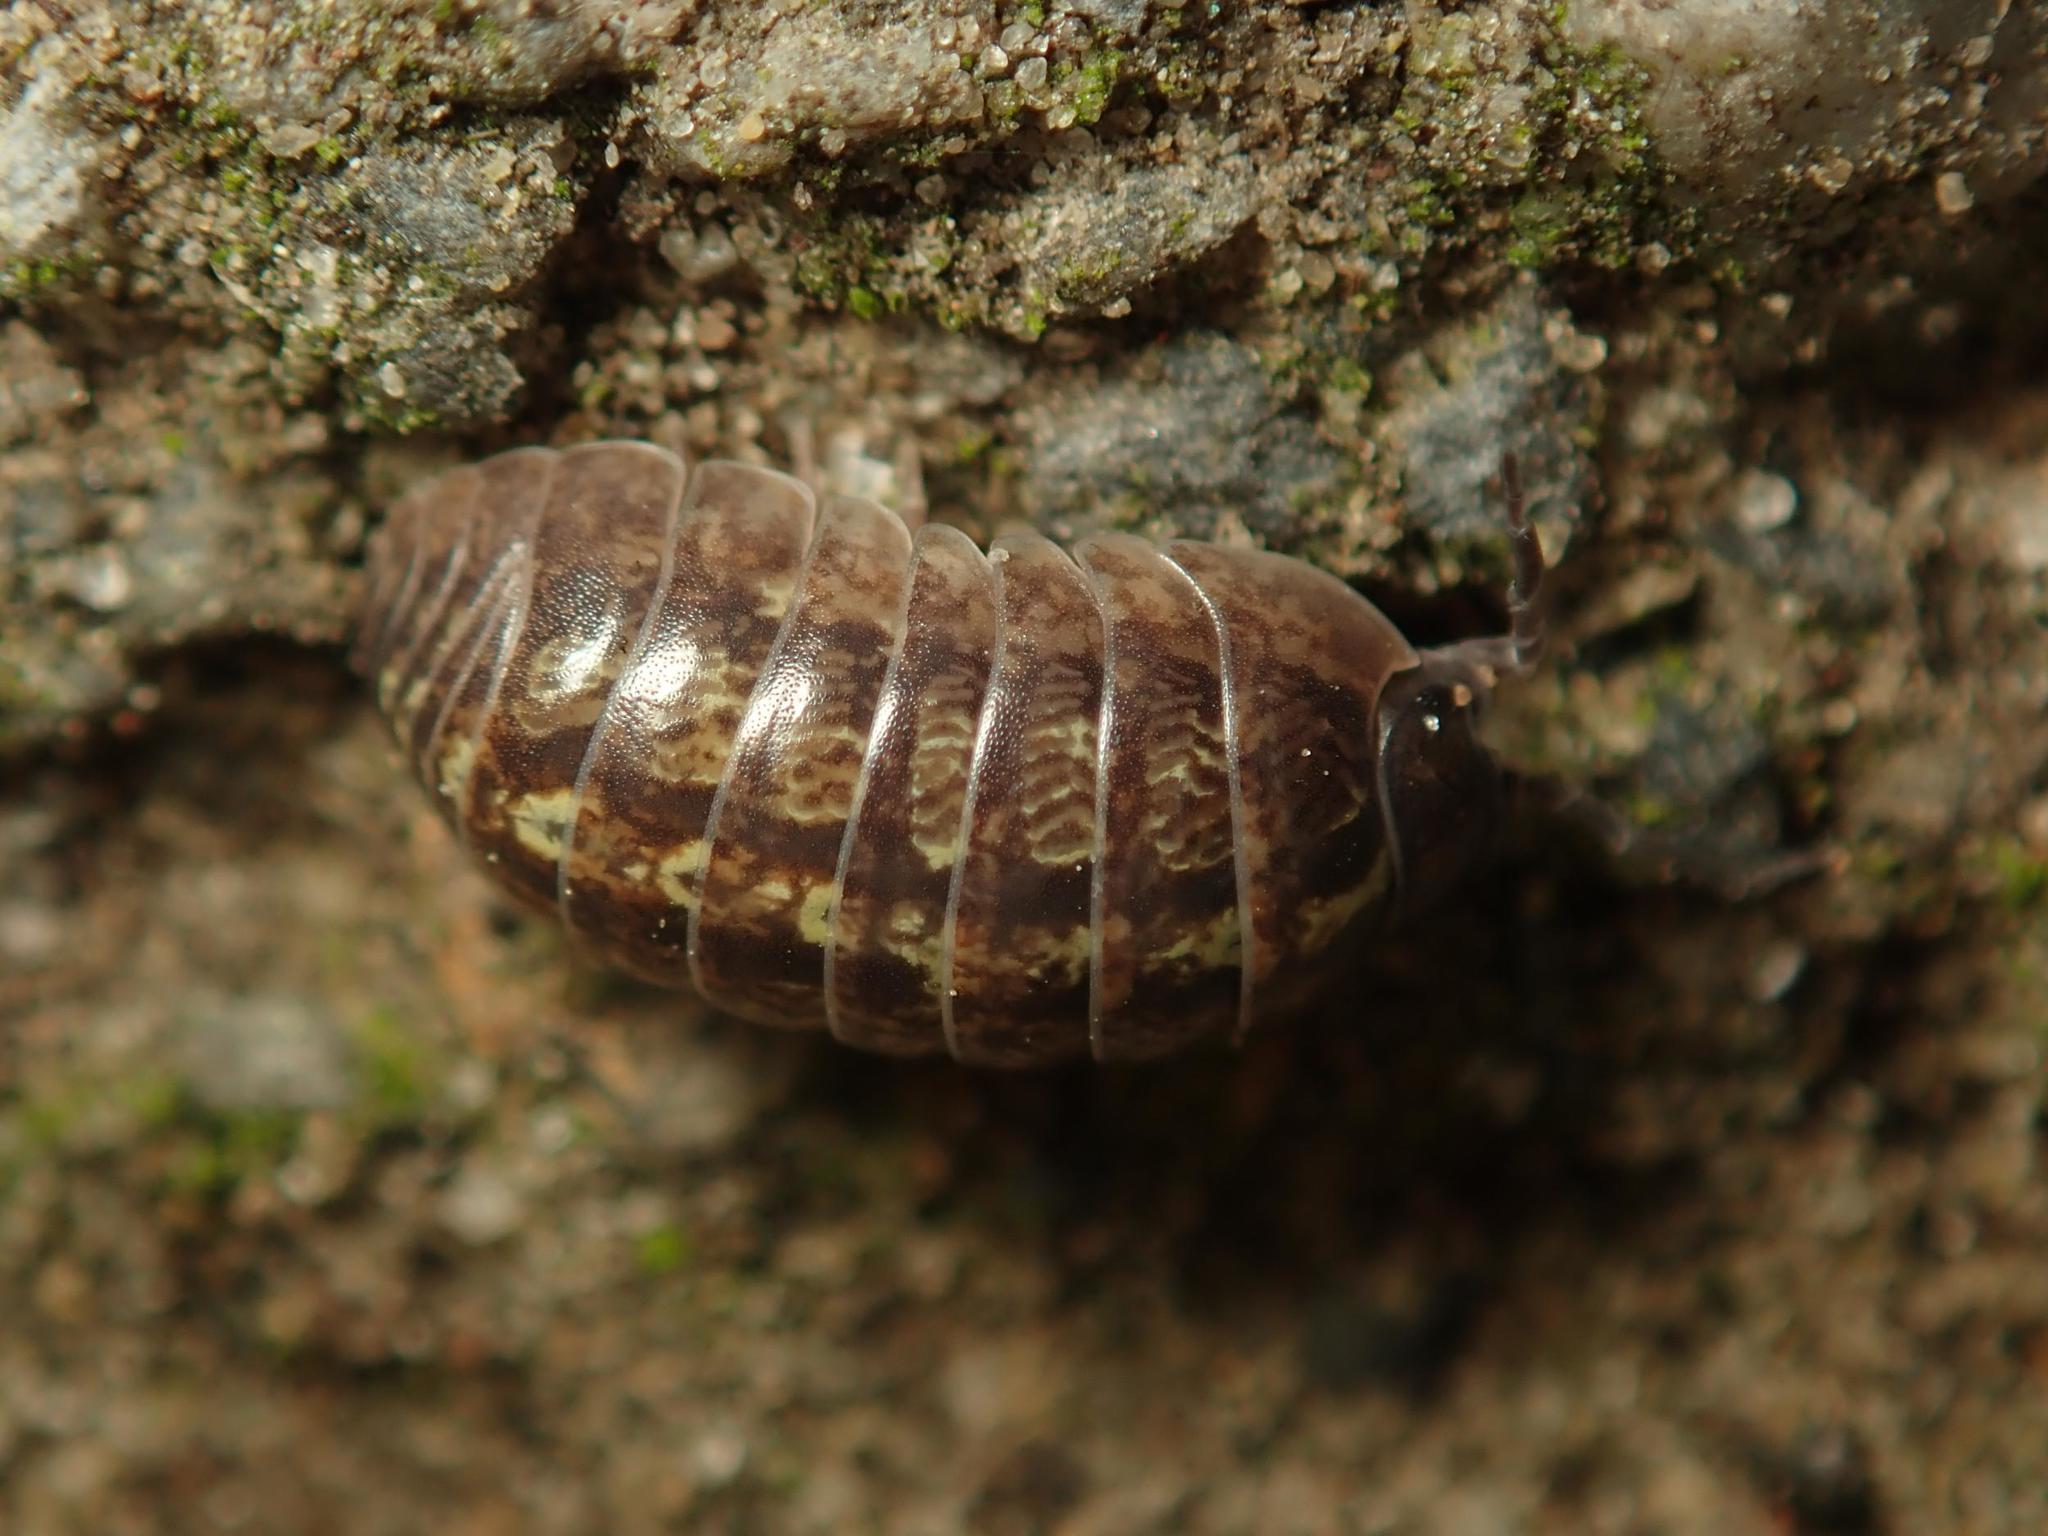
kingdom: Animalia
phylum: Arthropoda
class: Malacostraca
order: Isopoda
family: Armadillidiidae
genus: Armadillidium
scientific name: Armadillidium vulgare
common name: Common pill woodlouse
